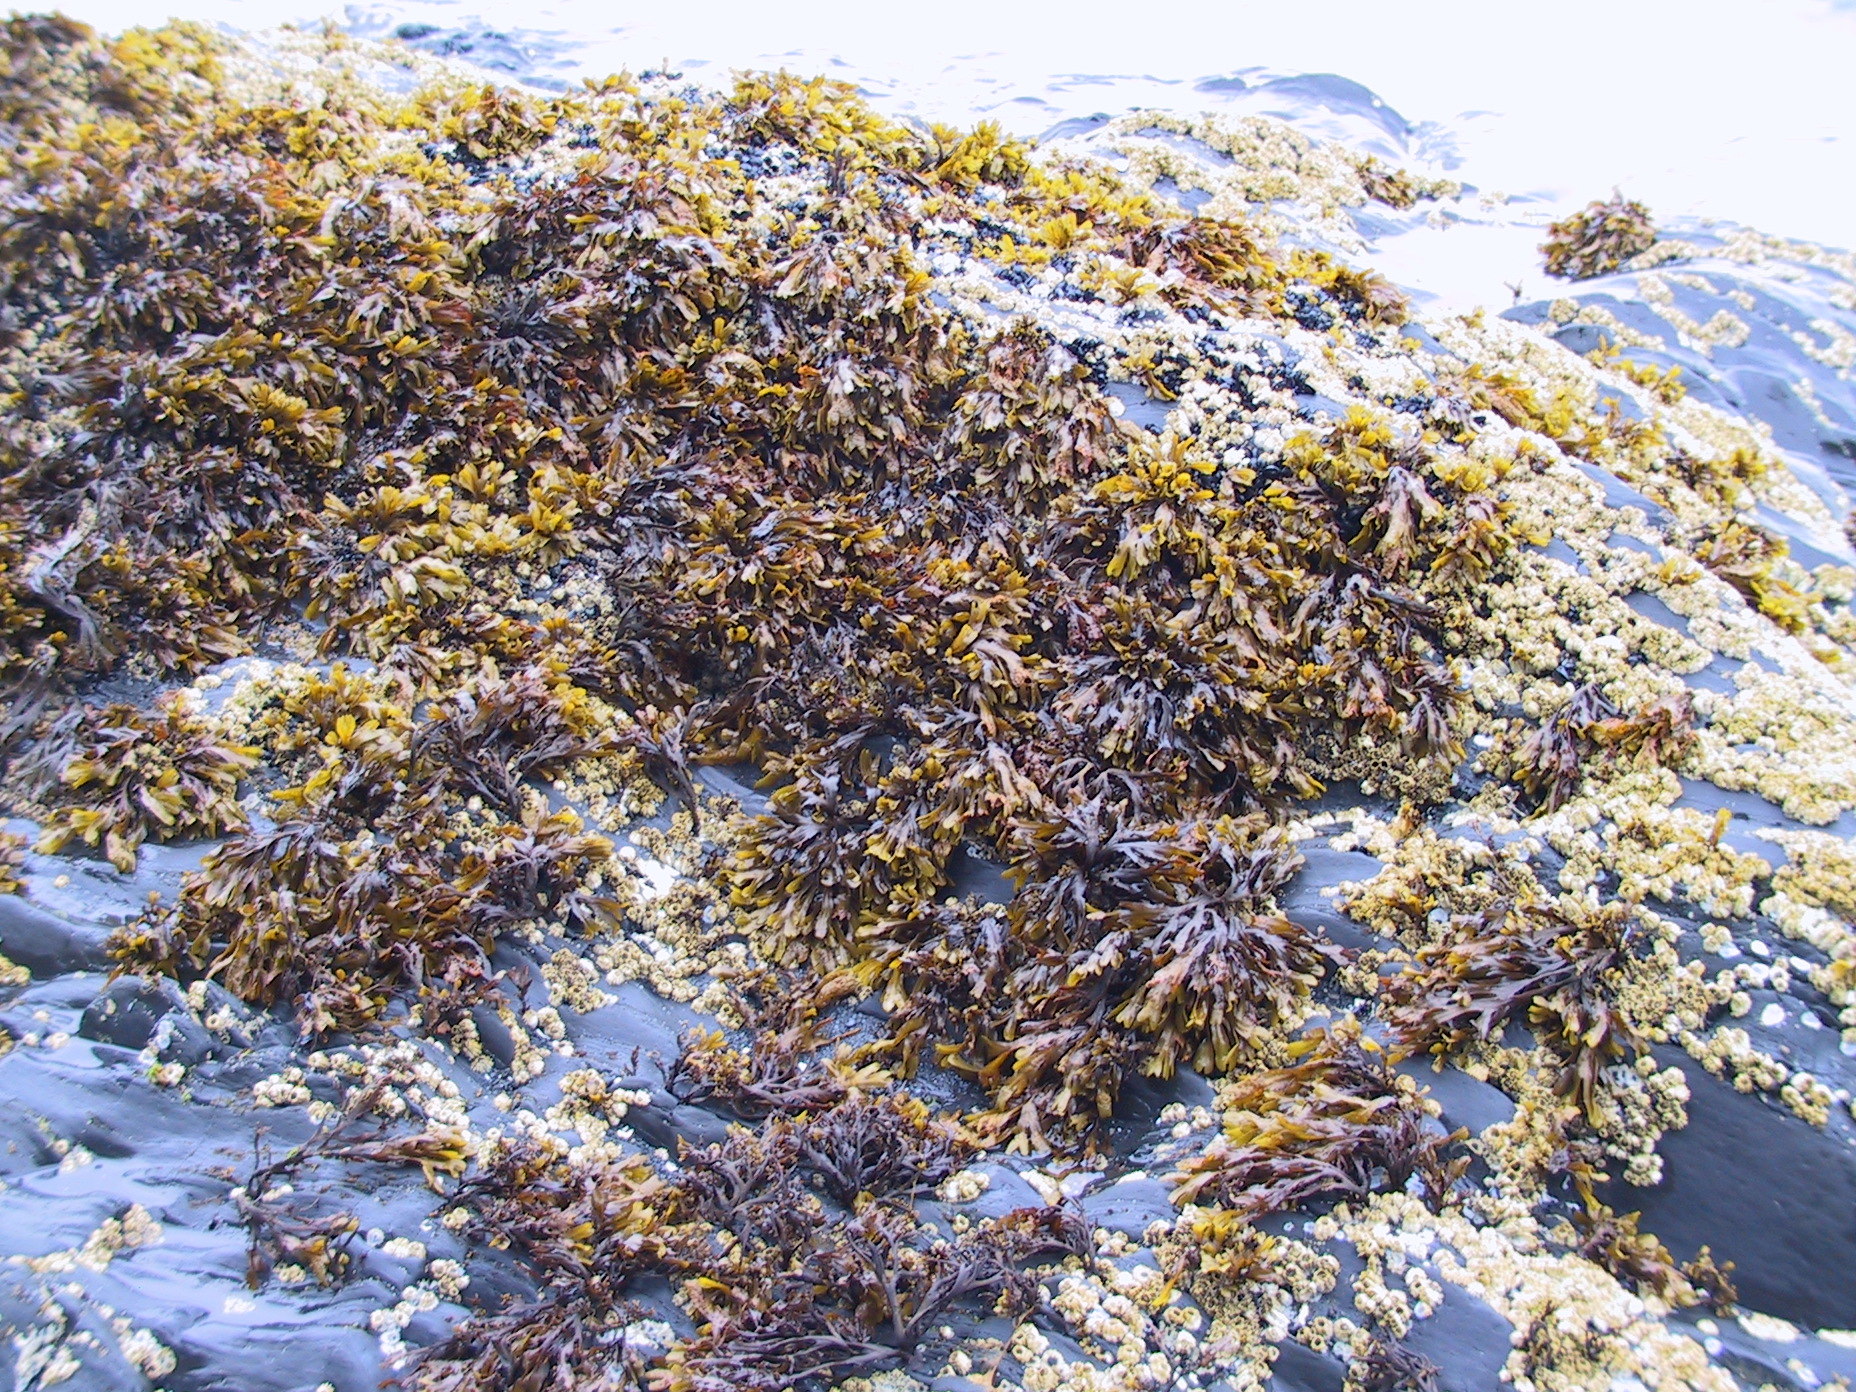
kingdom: Chromista
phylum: Ochrophyta
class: Phaeophyceae
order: Fucales
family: Fucaceae
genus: Fucus
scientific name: Fucus distichus
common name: Rockweed
